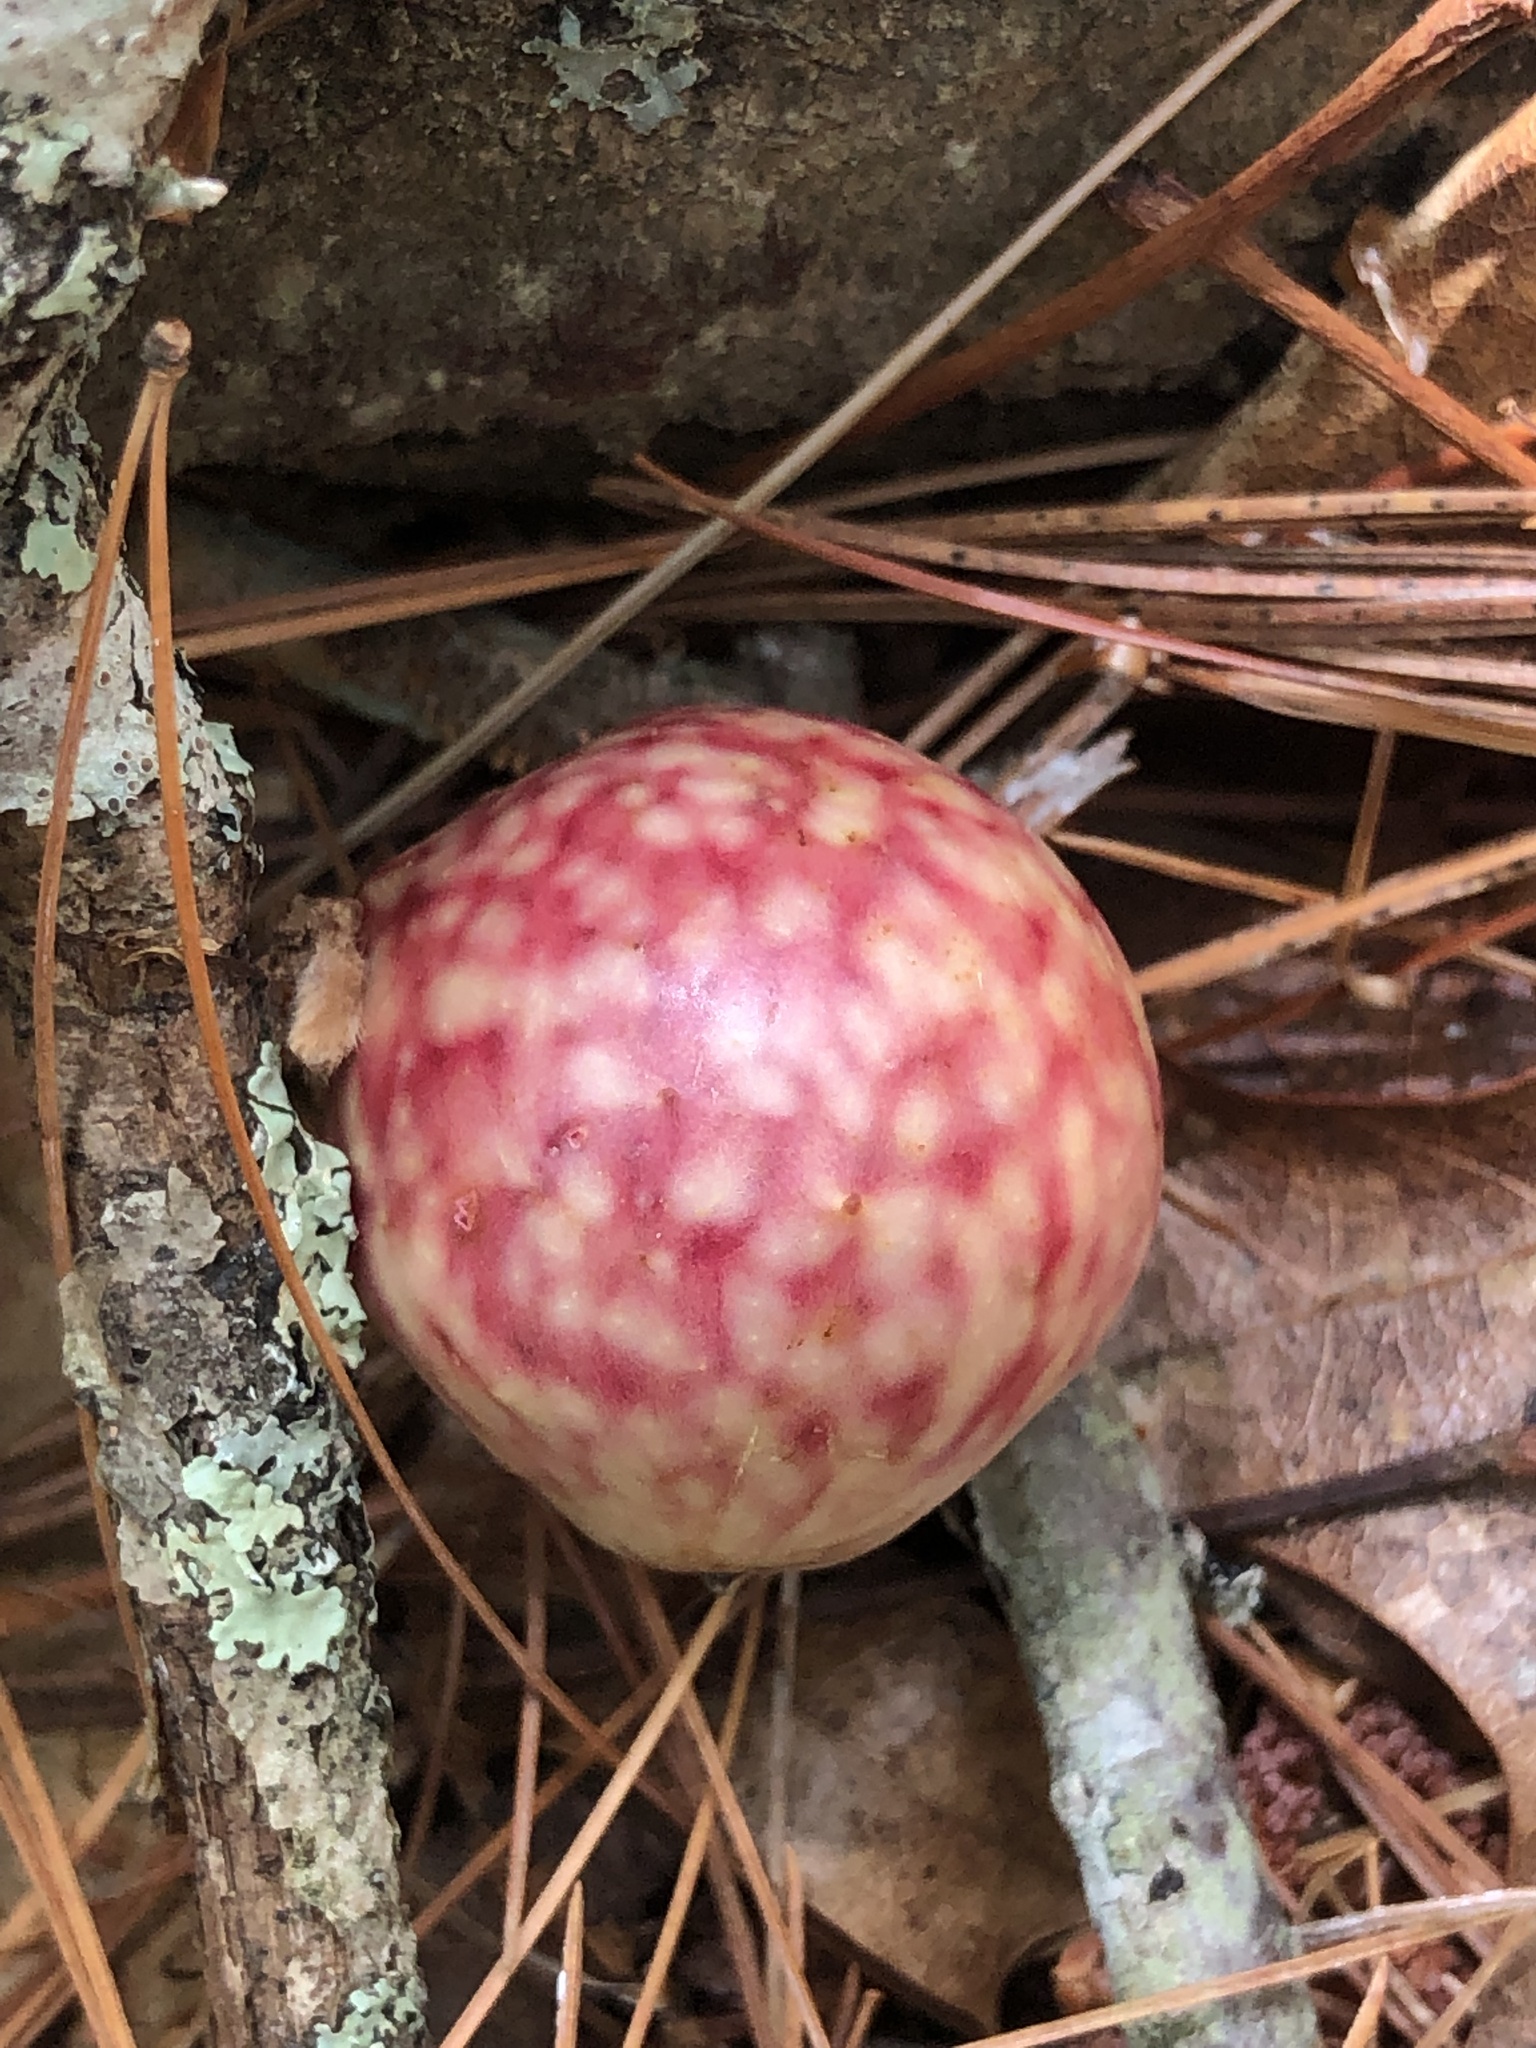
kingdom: Animalia
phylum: Arthropoda
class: Insecta
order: Hymenoptera
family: Cynipidae
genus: Amphibolips
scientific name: Amphibolips
